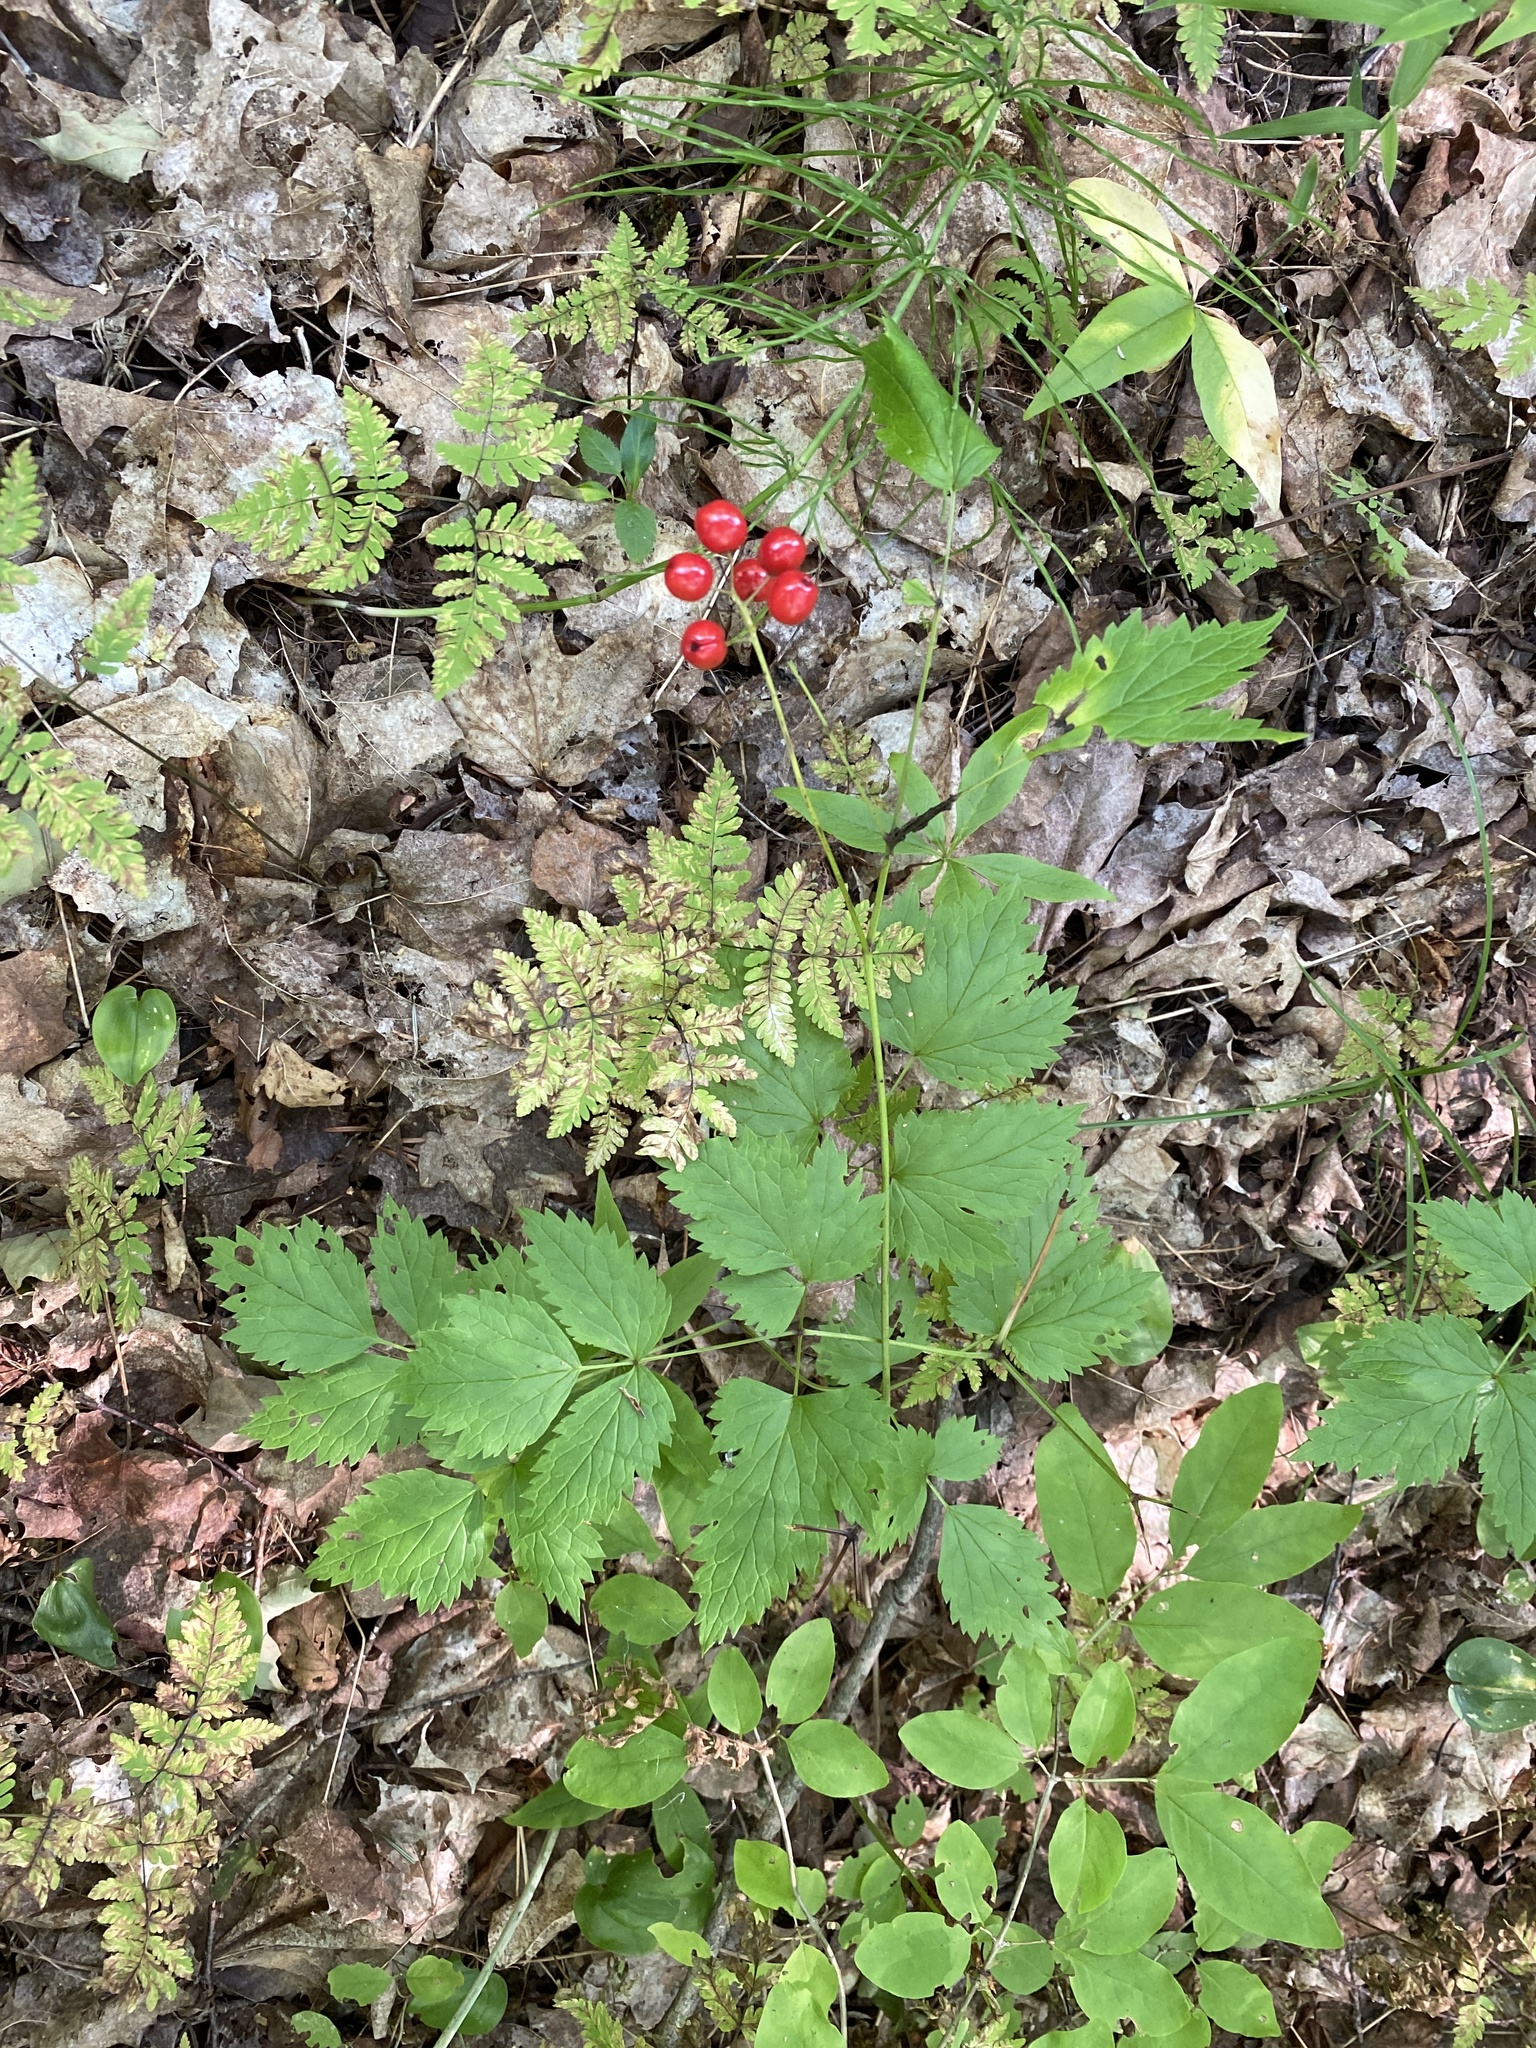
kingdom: Plantae
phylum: Tracheophyta
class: Magnoliopsida
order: Ranunculales
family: Ranunculaceae
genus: Actaea
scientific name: Actaea rubra
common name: Red baneberry
